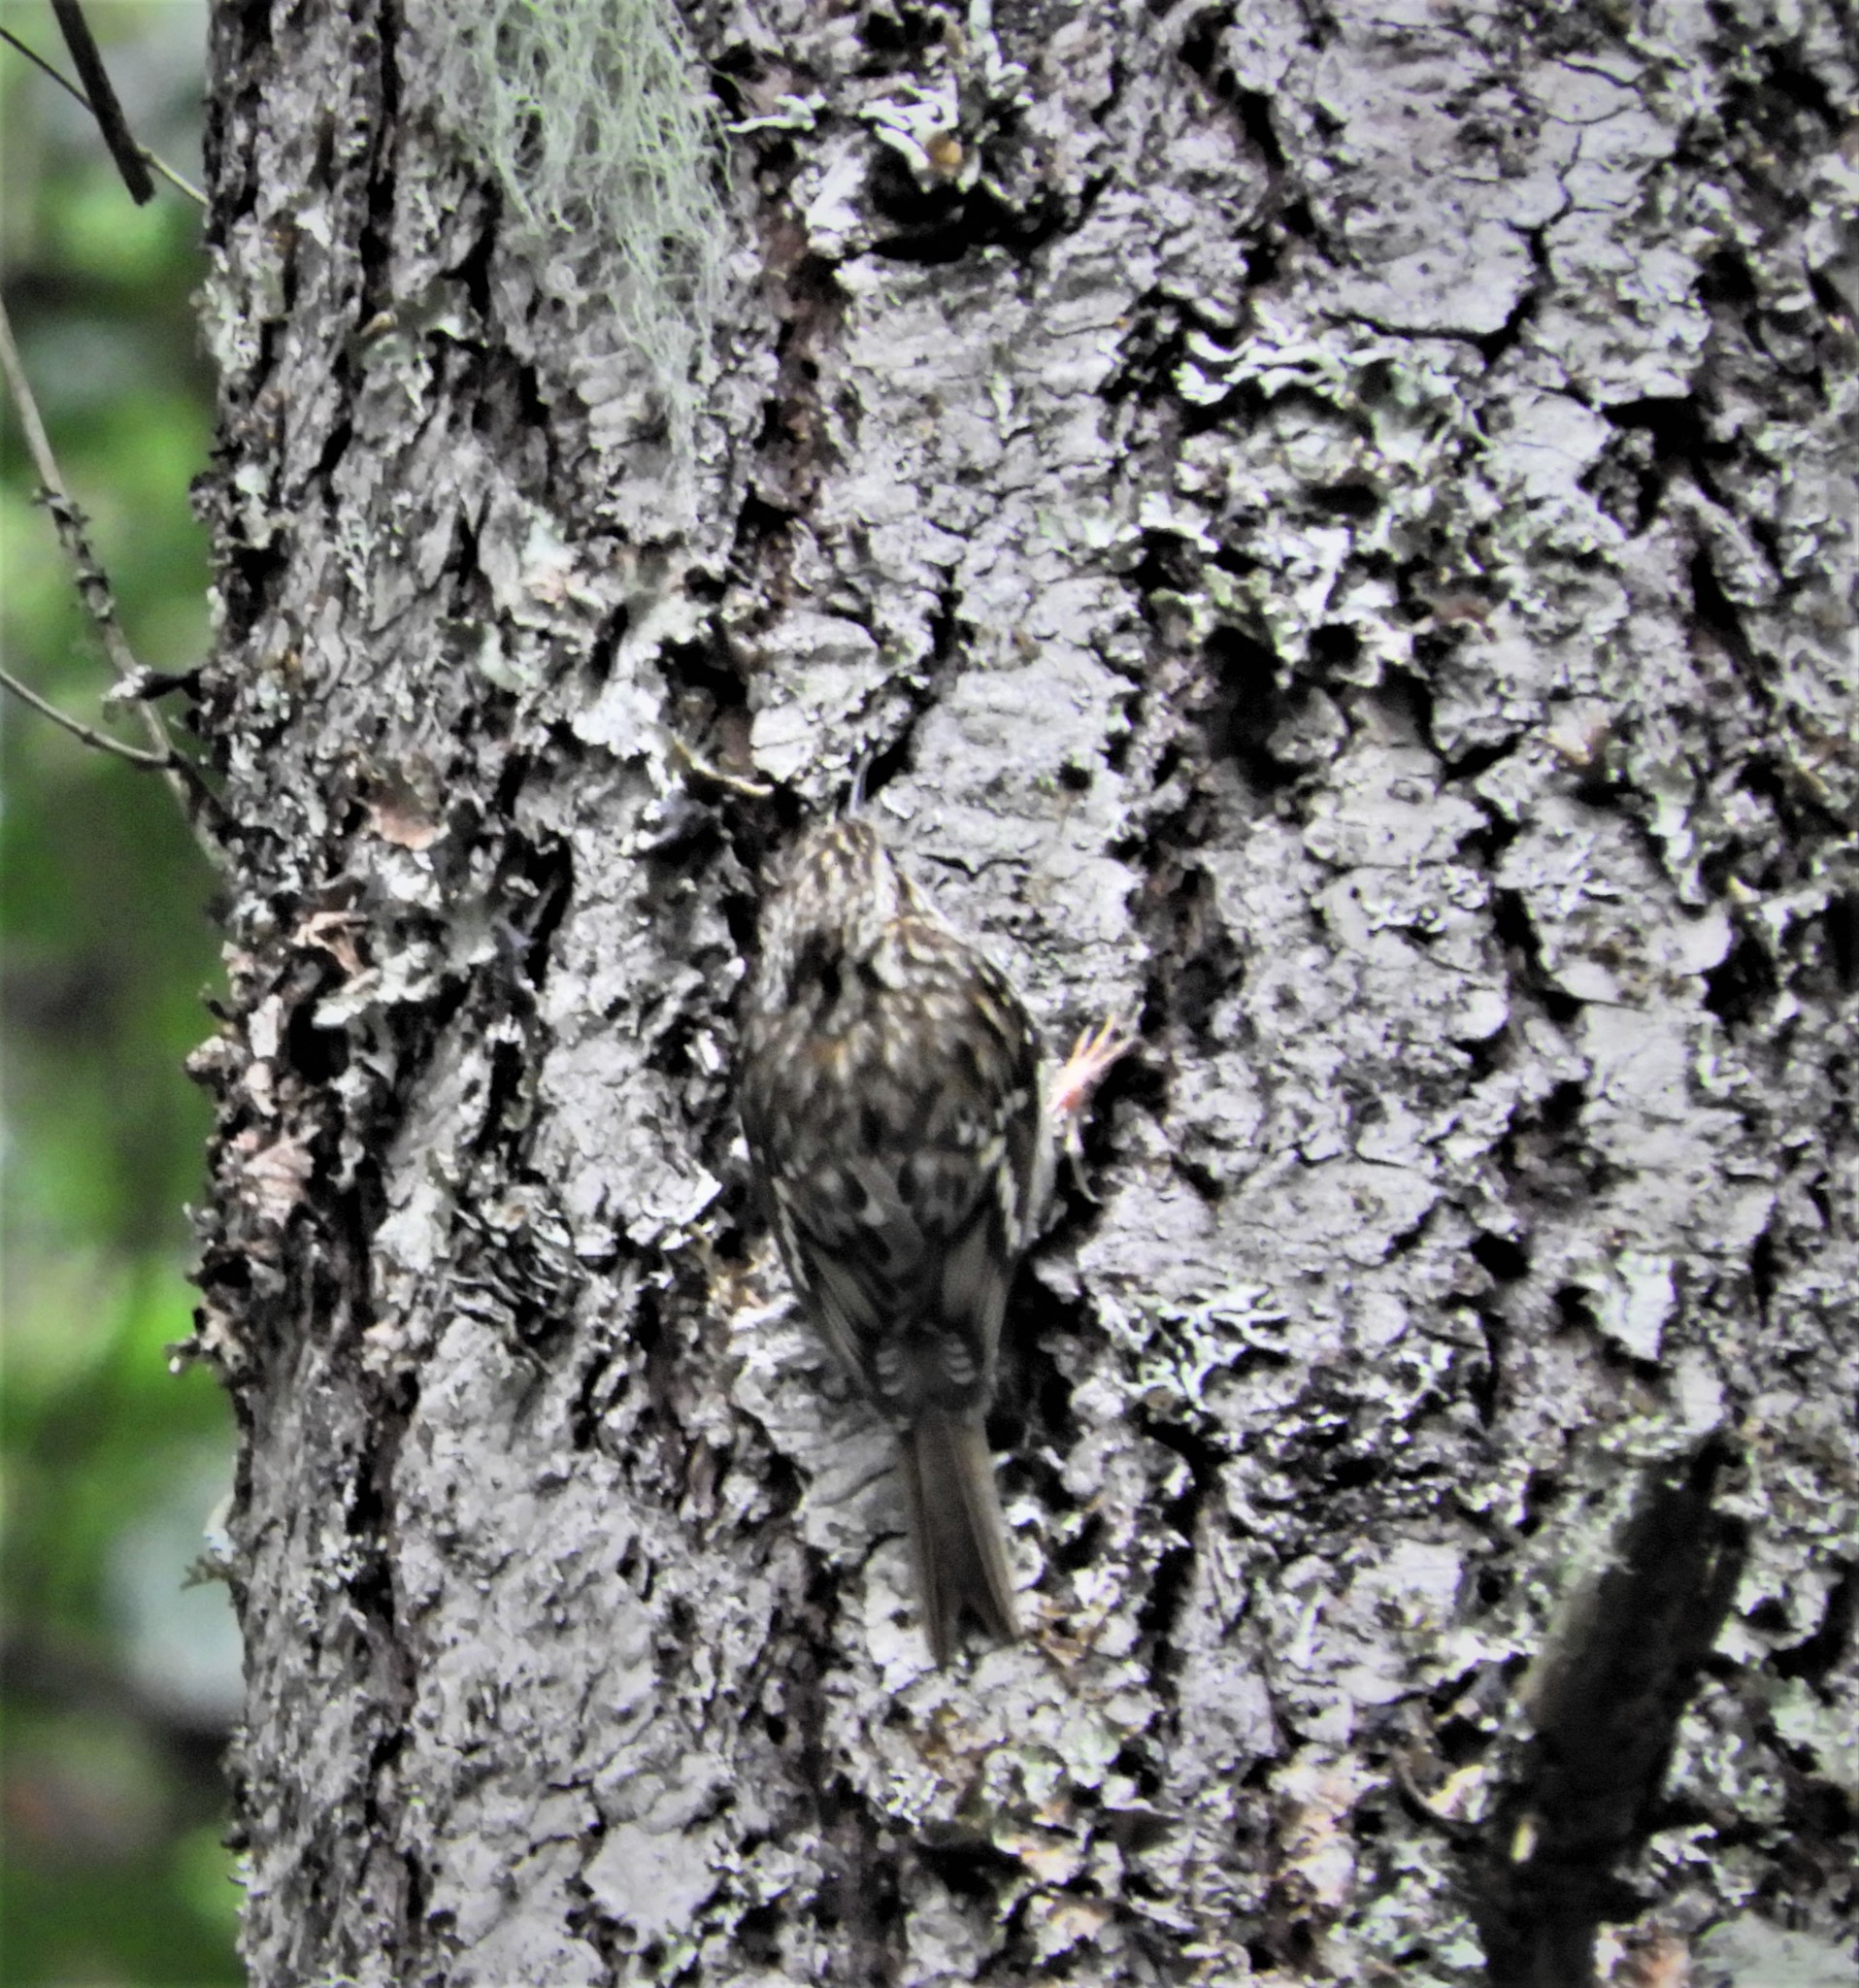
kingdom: Animalia
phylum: Chordata
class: Aves
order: Passeriformes
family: Certhiidae
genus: Certhia
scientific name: Certhia americana
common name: Brown creeper
